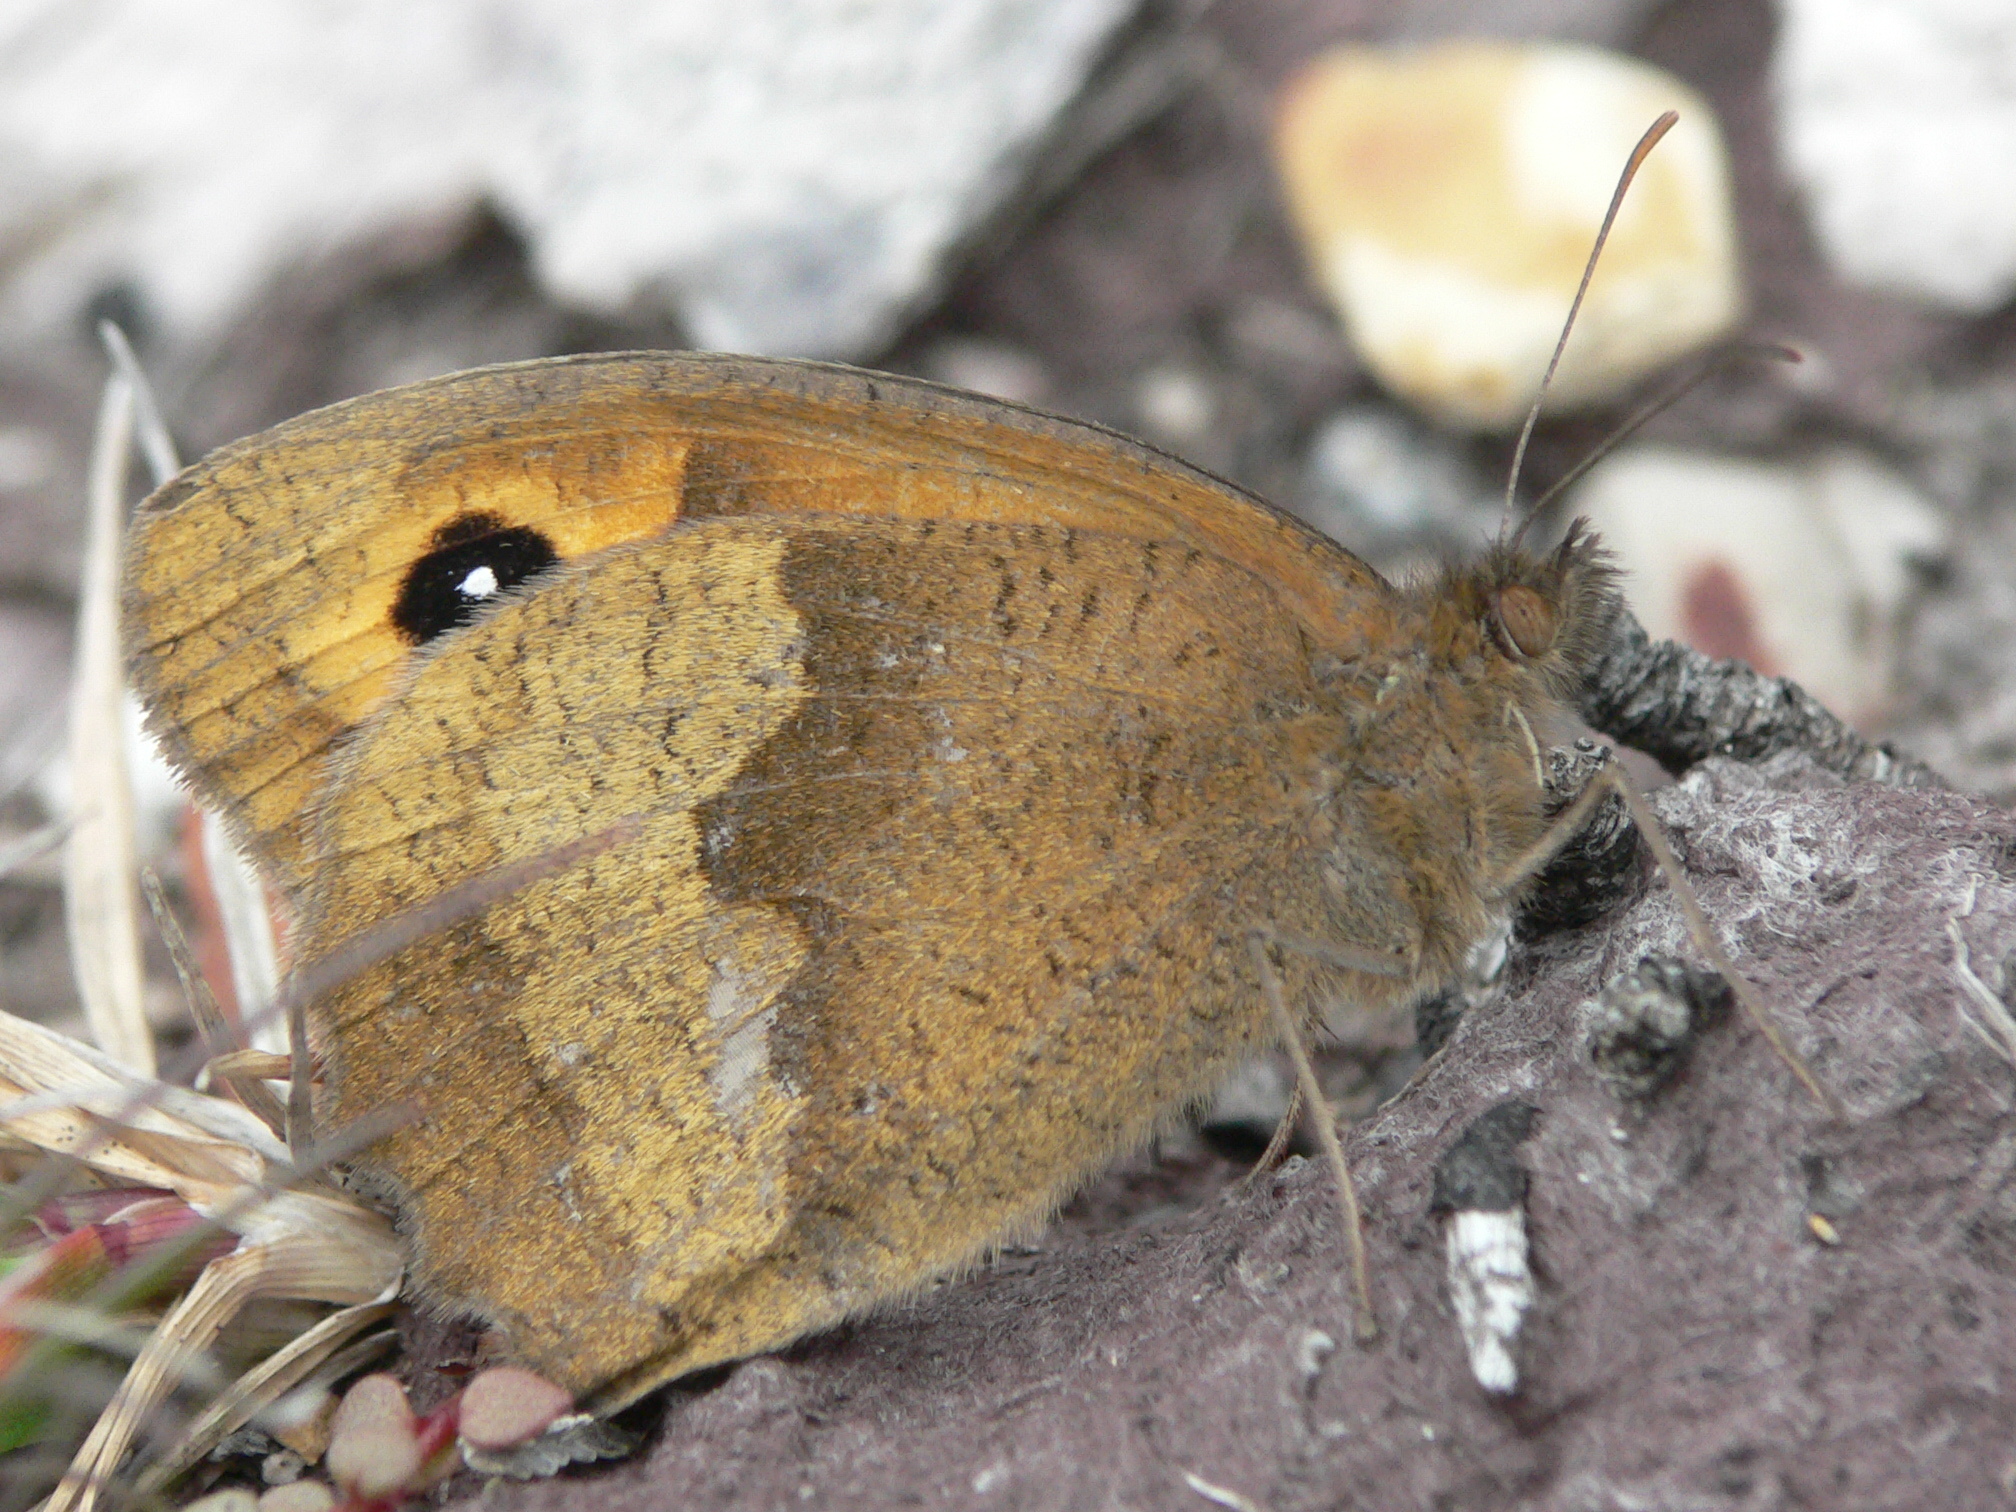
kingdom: Animalia
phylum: Arthropoda
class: Insecta
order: Lepidoptera
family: Nymphalidae
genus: Maniola
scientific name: Maniola jurtina
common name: Meadow brown
